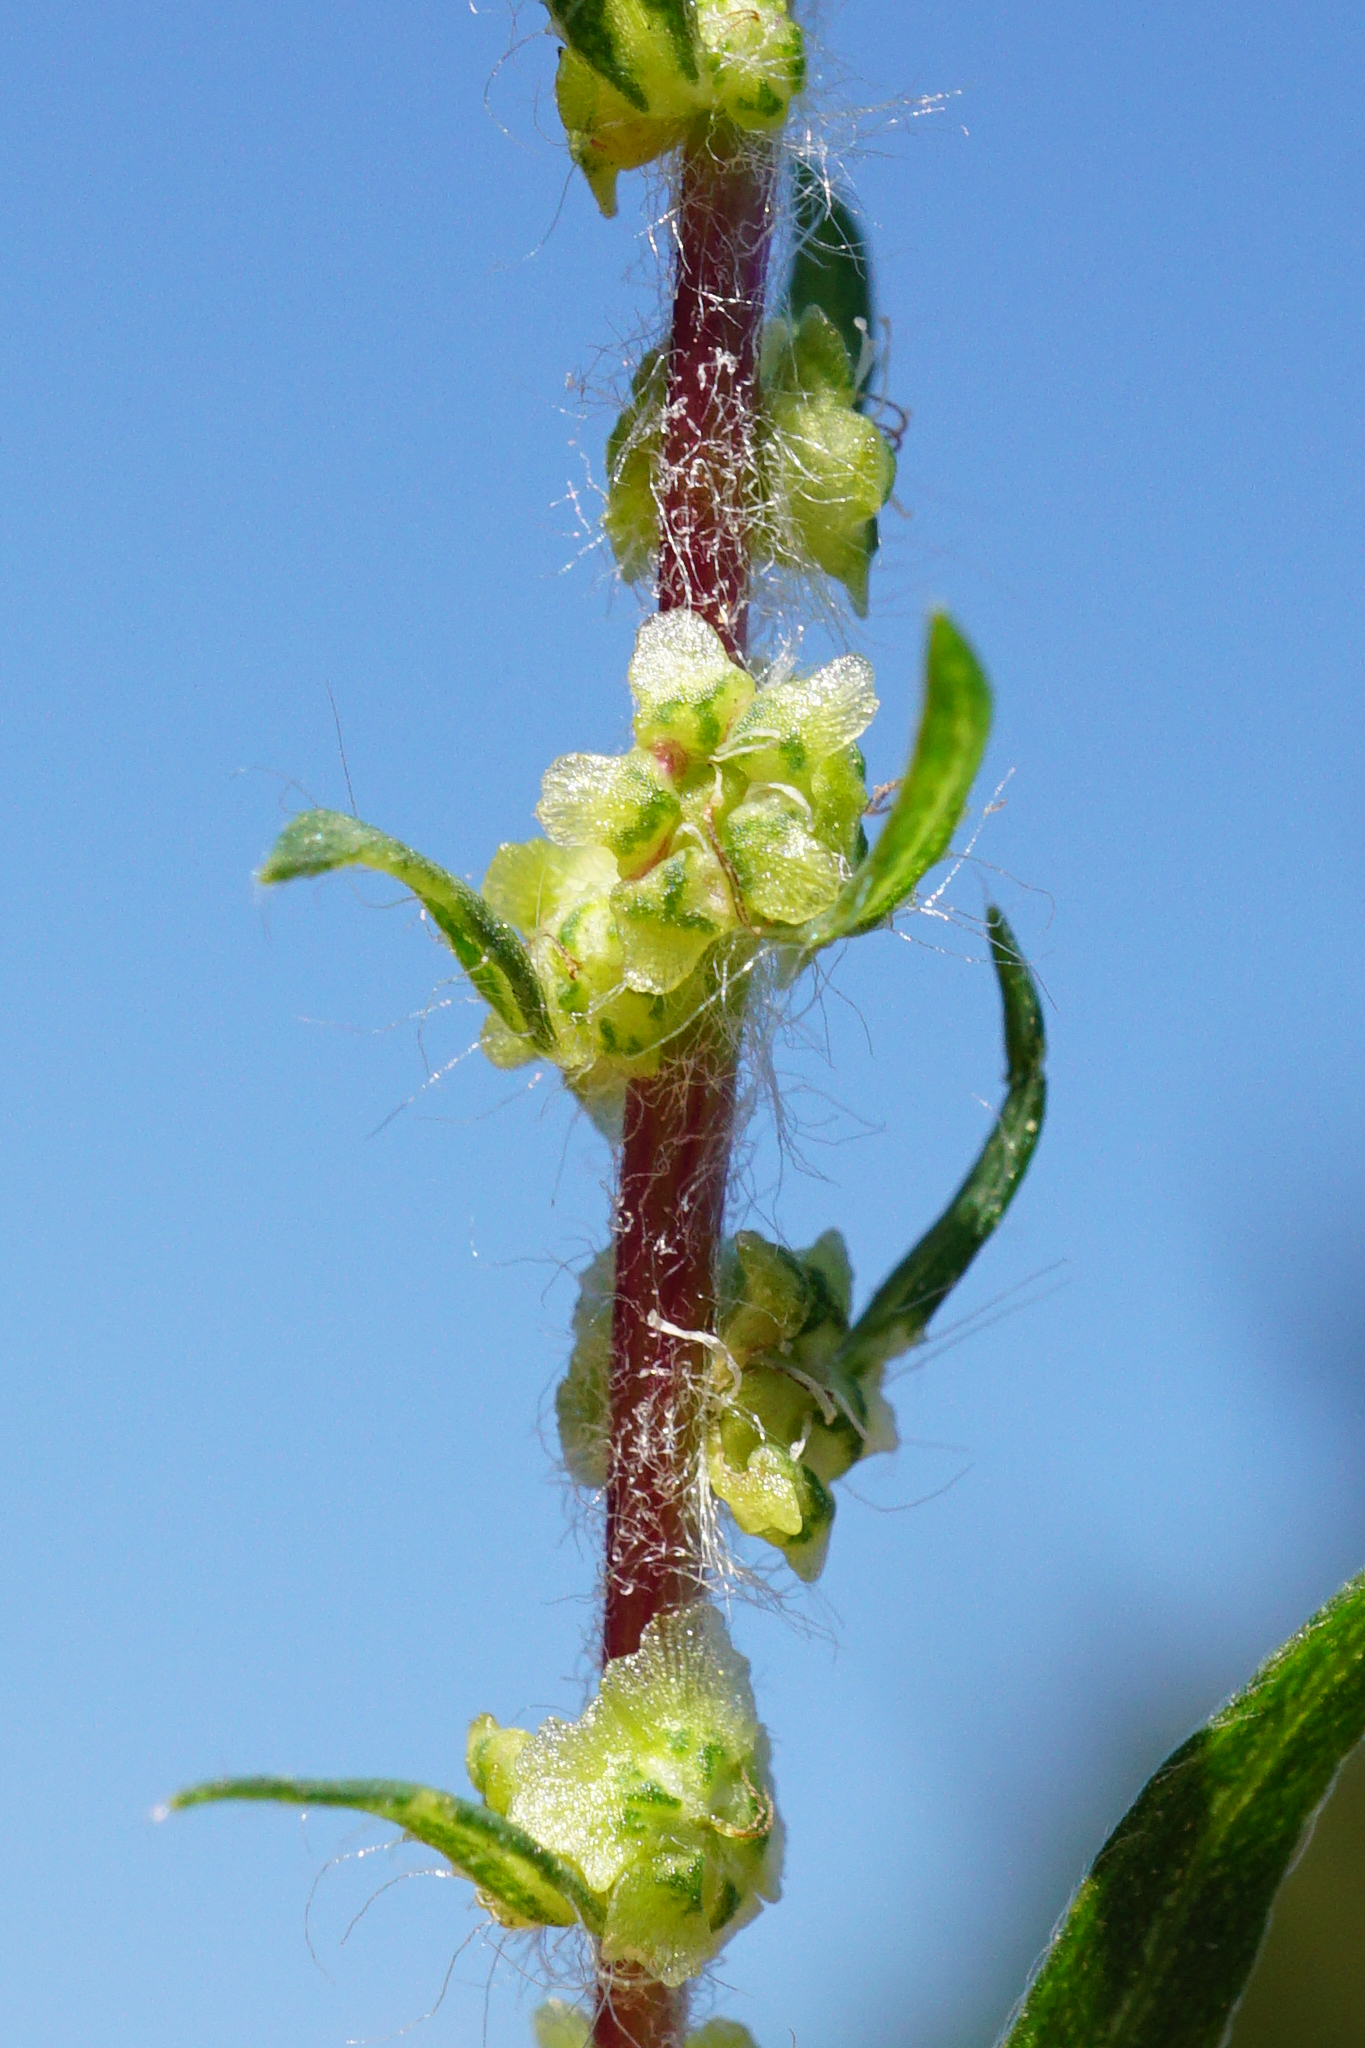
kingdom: Plantae
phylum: Tracheophyta
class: Magnoliopsida
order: Caryophyllales
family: Amaranthaceae
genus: Bassia
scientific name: Bassia scoparia
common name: Belvedere
